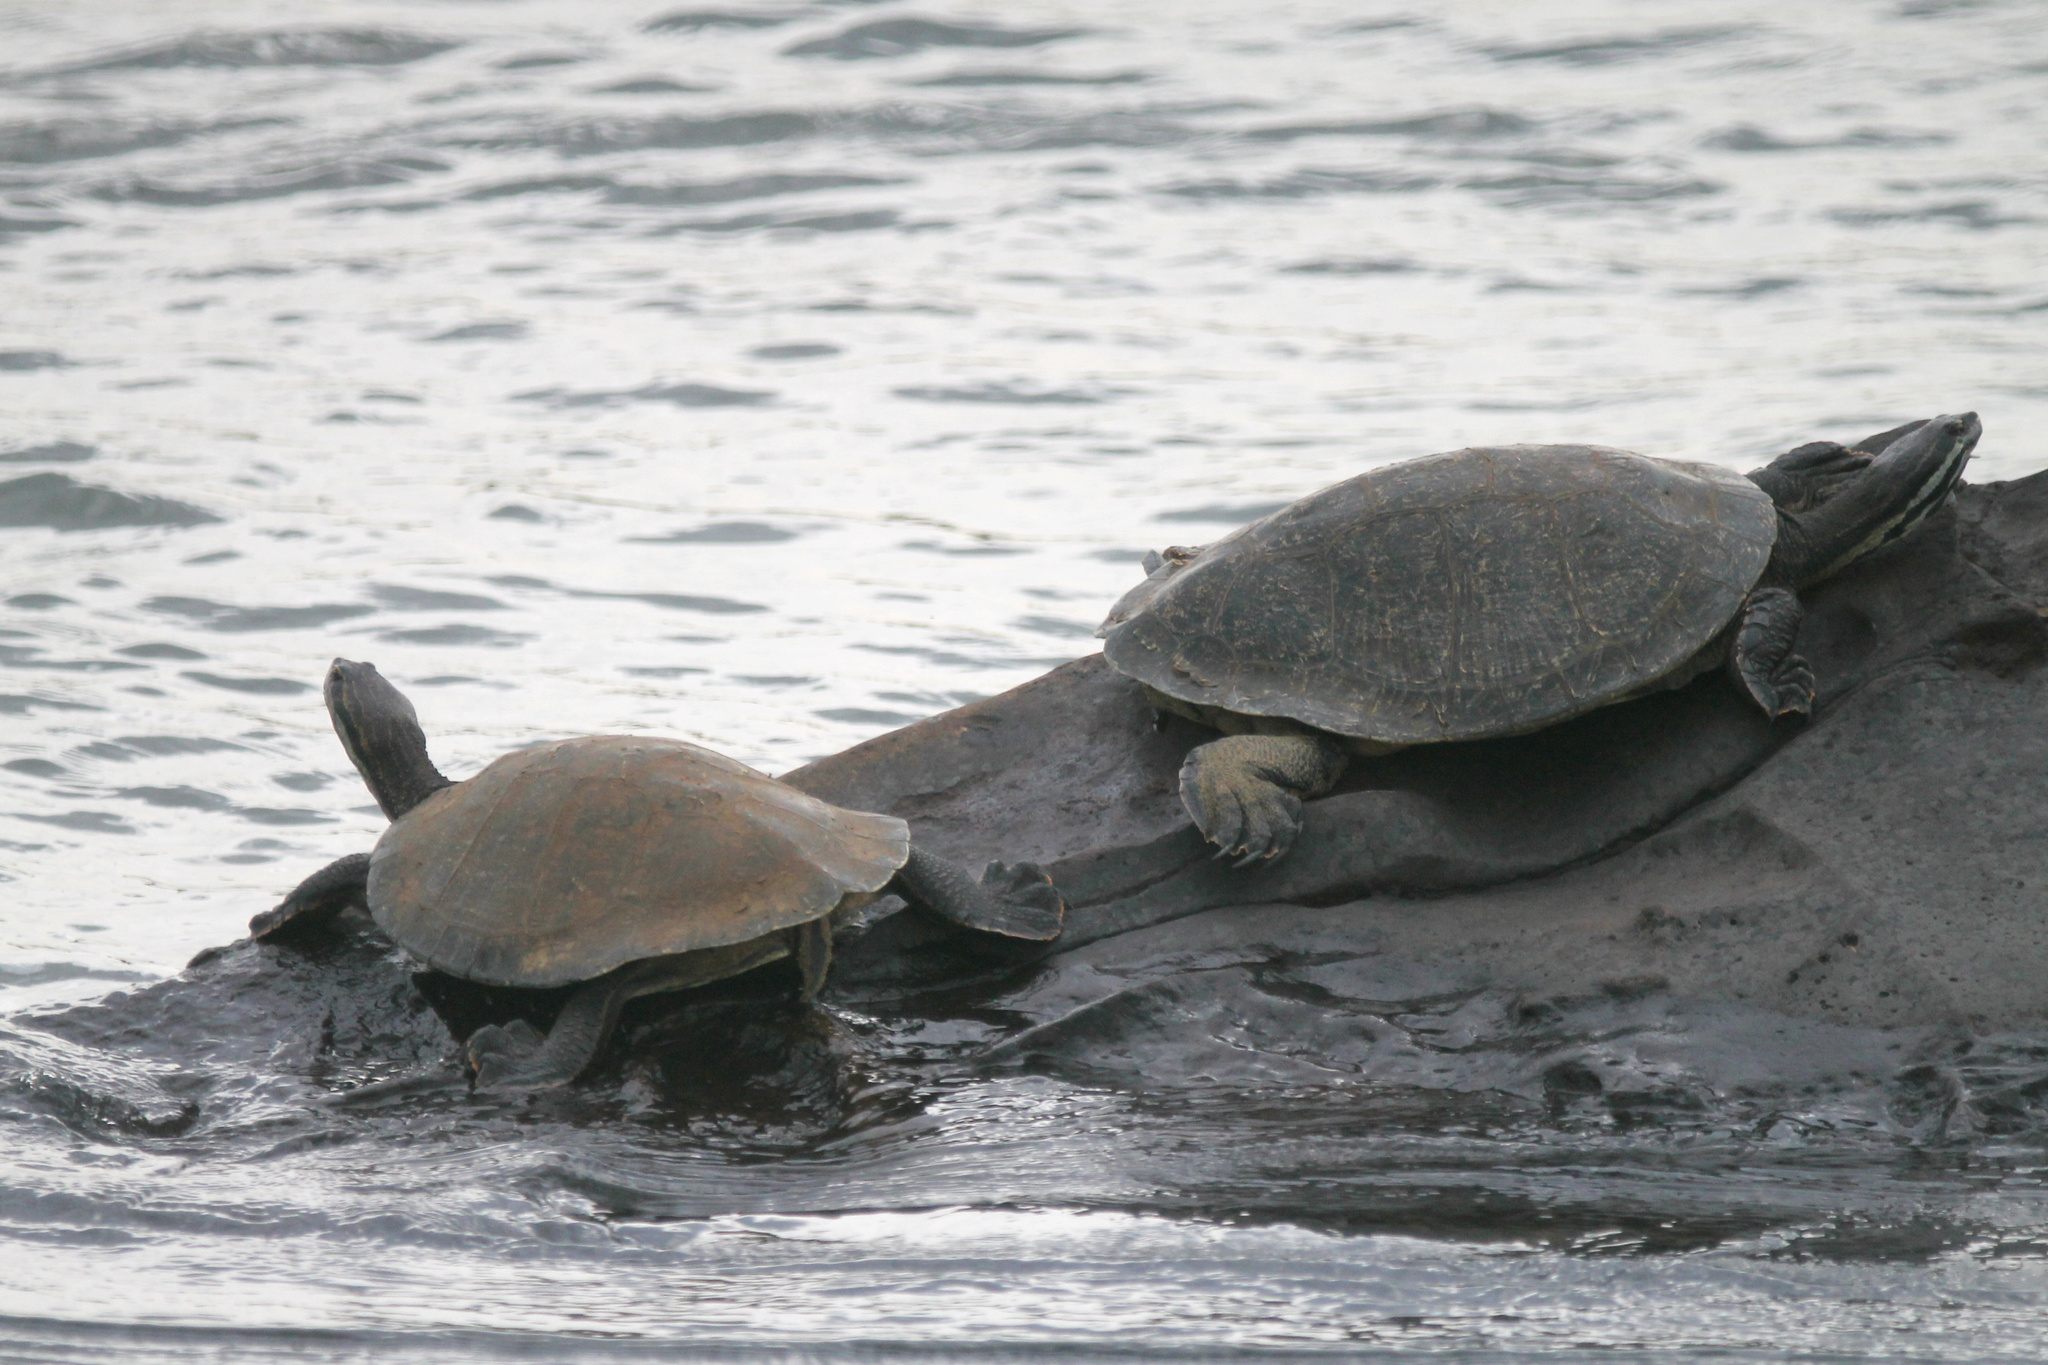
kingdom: Animalia
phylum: Chordata
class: Testudines
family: Chelidae
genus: Phrynops
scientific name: Phrynops williamsi
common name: Williams side-necked turtle
